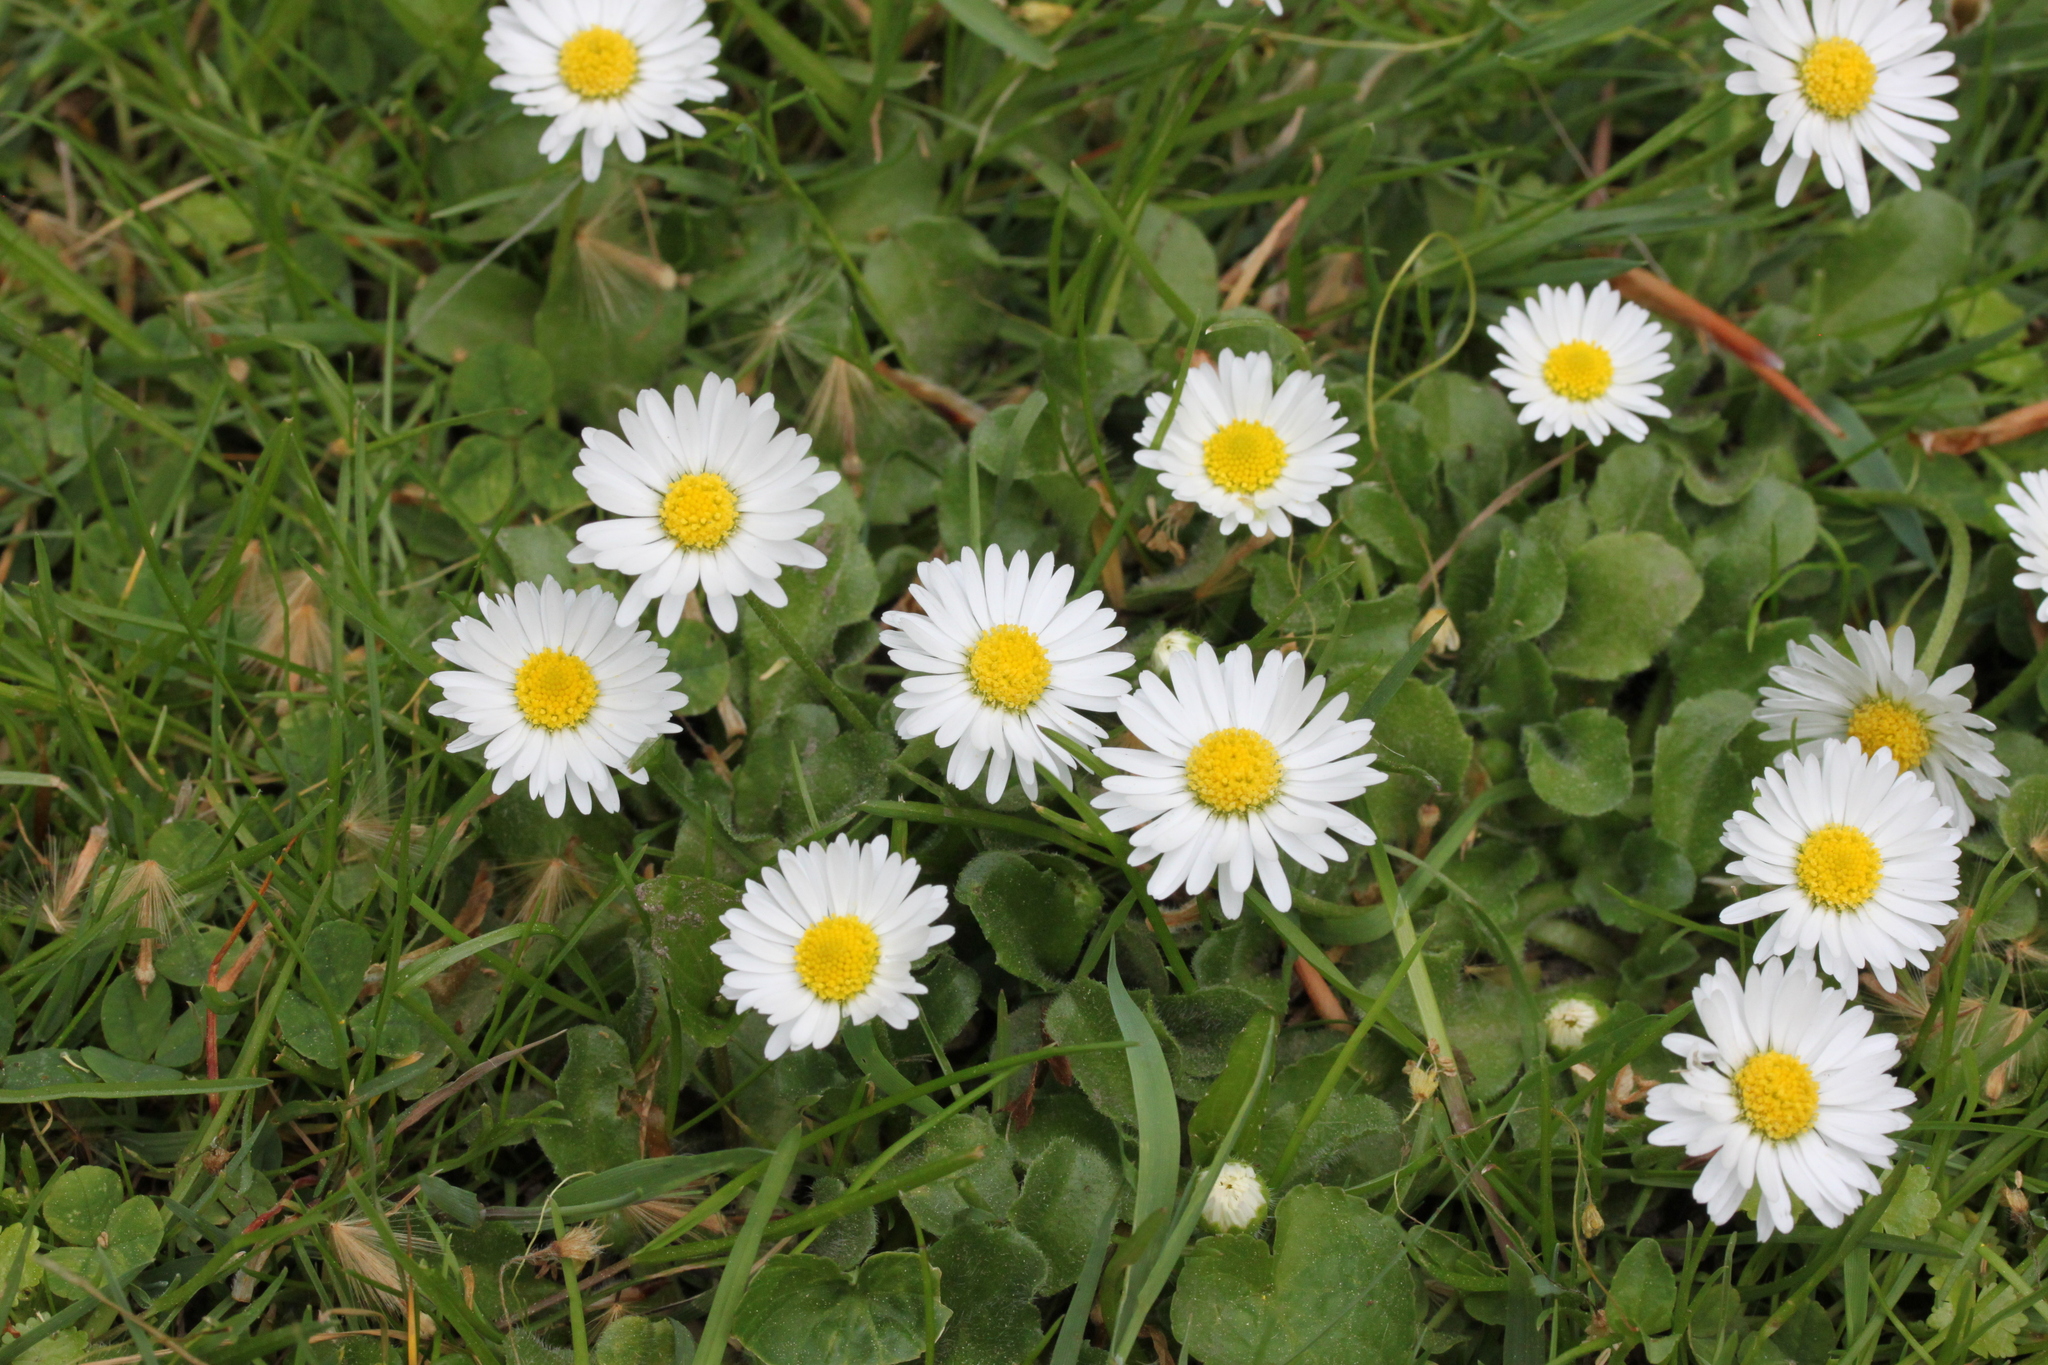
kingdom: Plantae
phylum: Tracheophyta
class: Magnoliopsida
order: Asterales
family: Asteraceae
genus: Bellis
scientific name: Bellis perennis
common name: Lawndaisy
